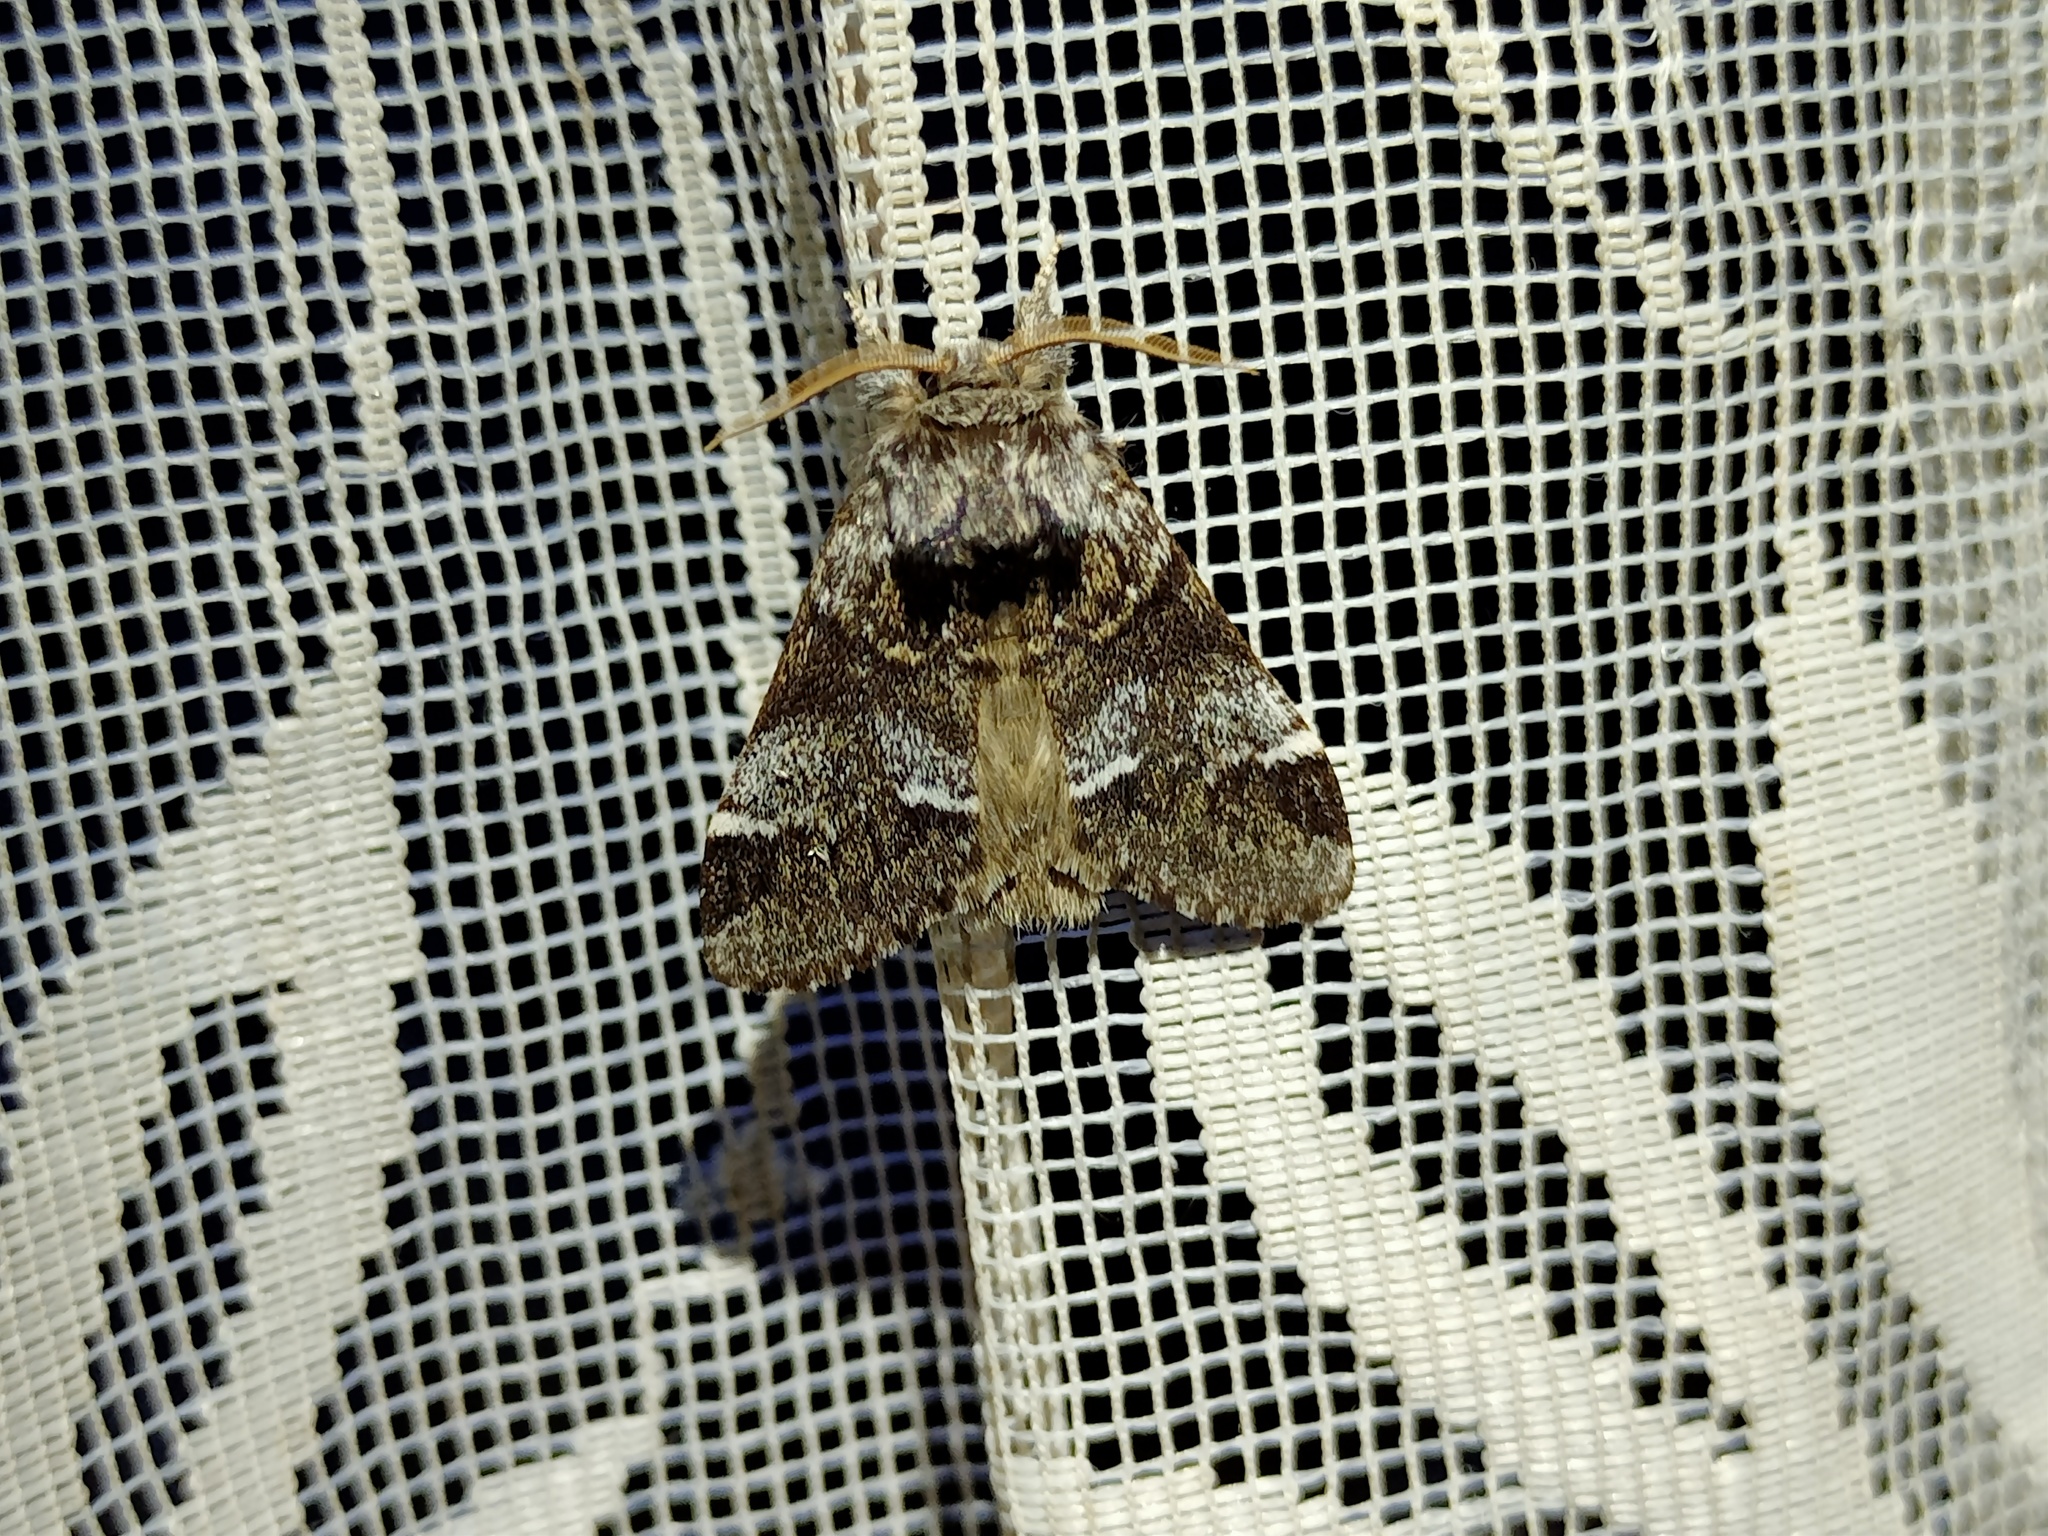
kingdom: Animalia
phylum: Arthropoda
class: Insecta
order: Lepidoptera
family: Notodontidae
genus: Drymonia
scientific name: Drymonia dodonaea
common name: Marbled brown
